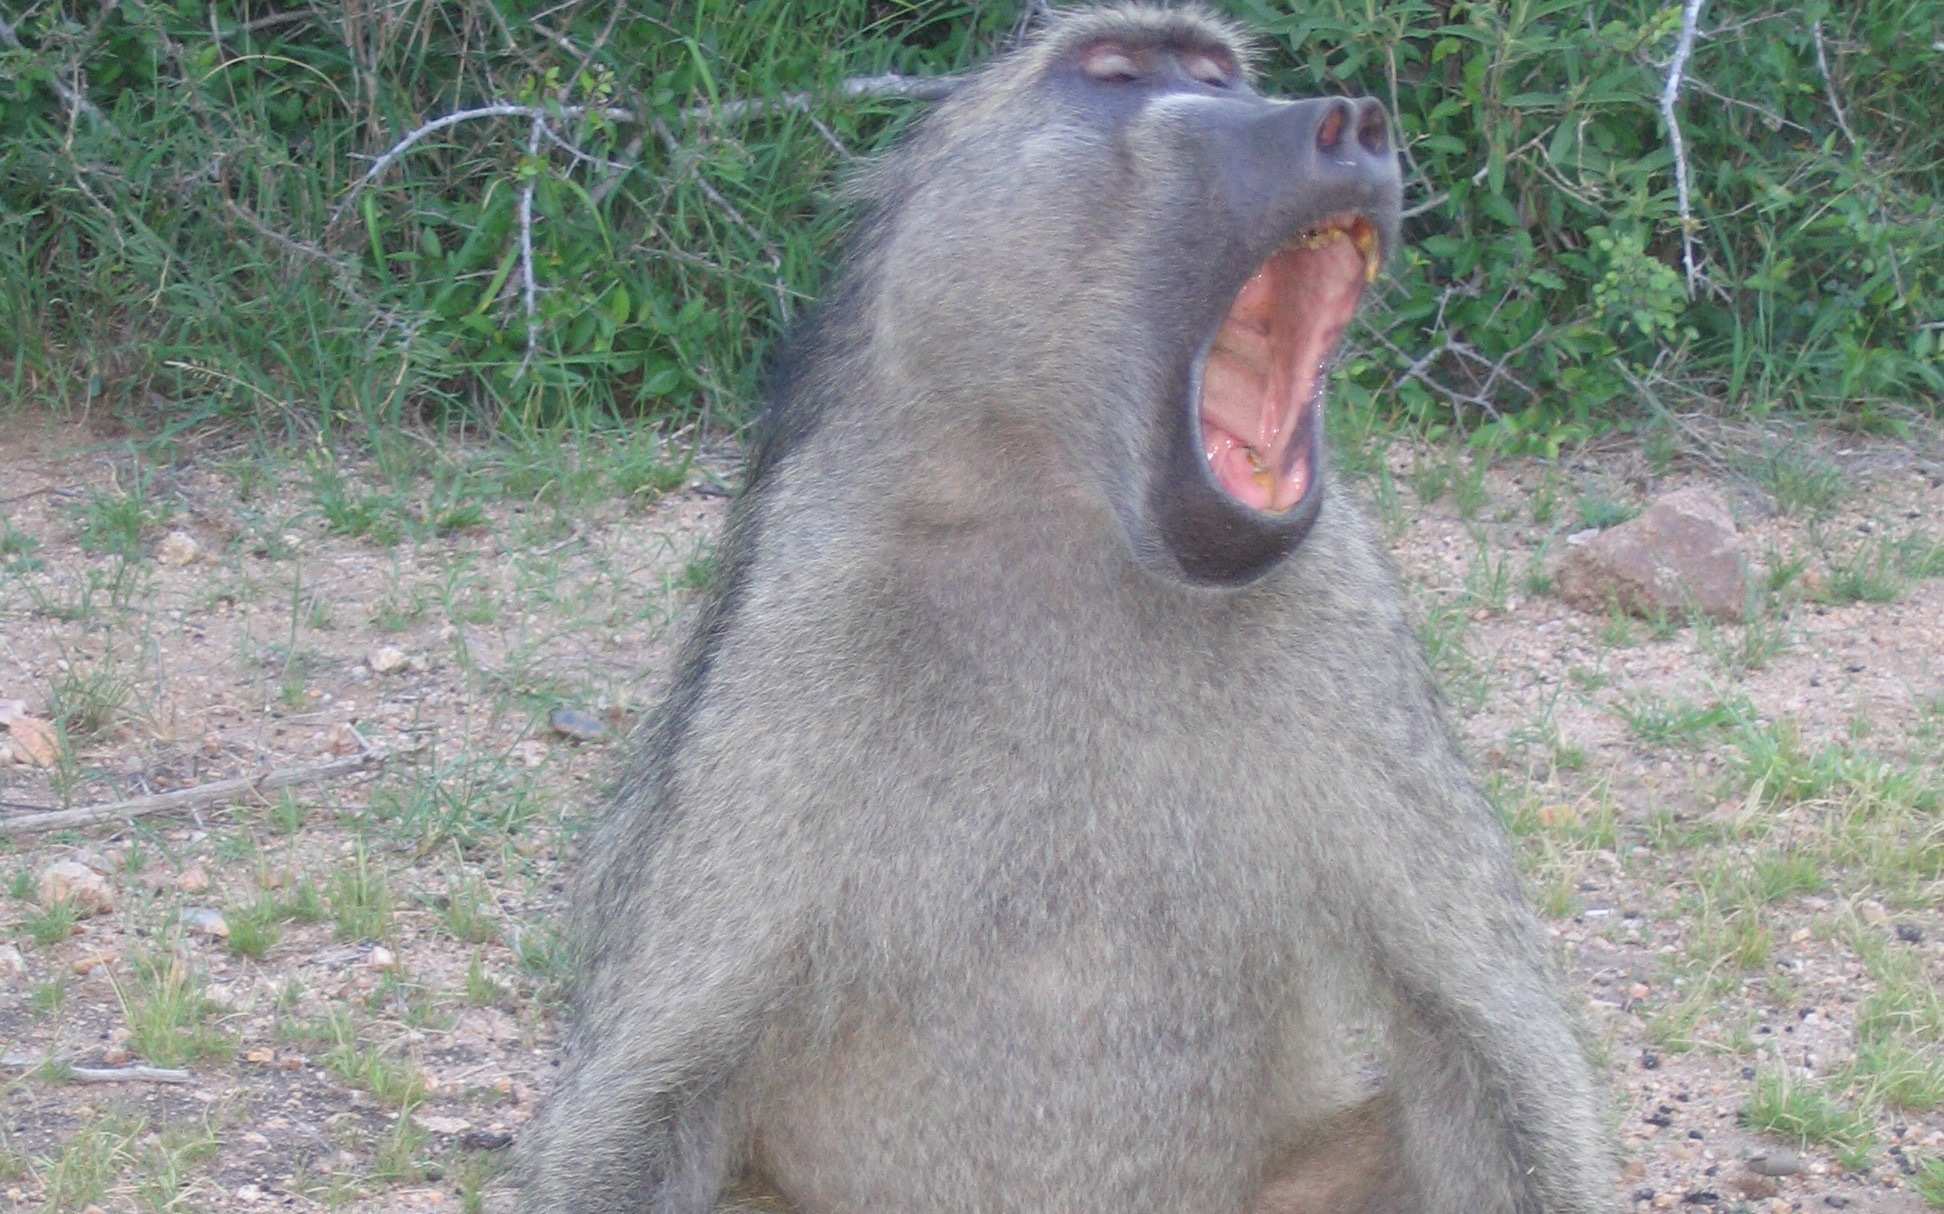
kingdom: Animalia
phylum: Chordata
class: Mammalia
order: Primates
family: Cercopithecidae
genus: Papio
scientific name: Papio ursinus
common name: Chacma baboon
